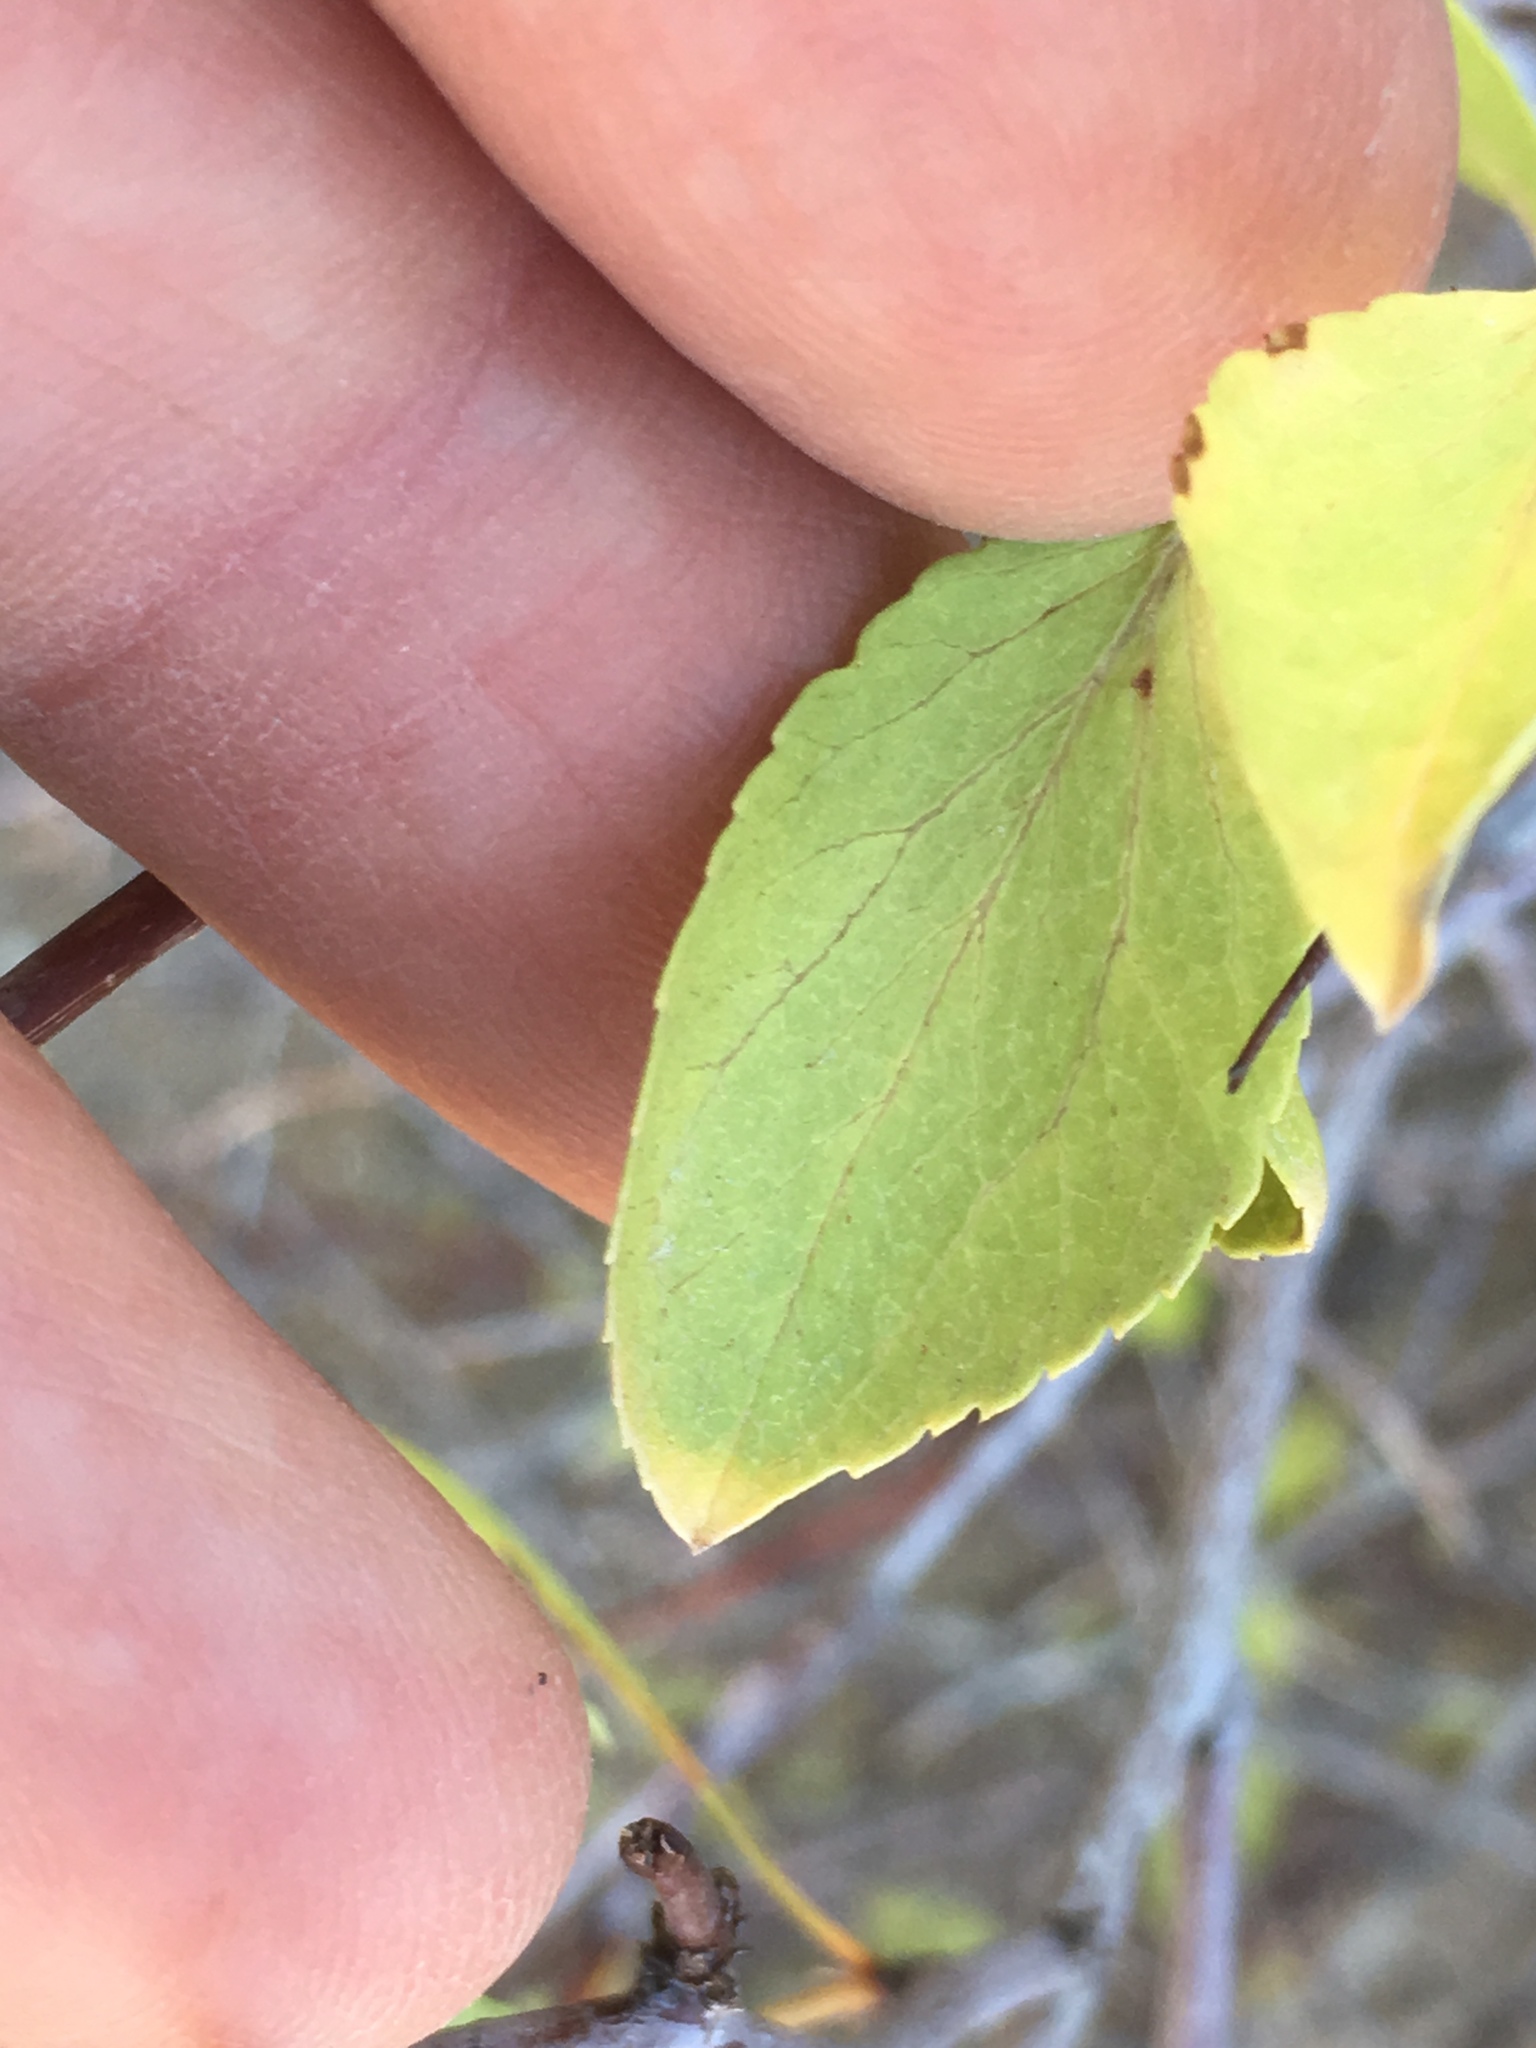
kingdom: Plantae
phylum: Tracheophyta
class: Magnoliopsida
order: Rosales
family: Rosaceae
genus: Prunus
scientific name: Prunus fremontii
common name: Desert apricot
